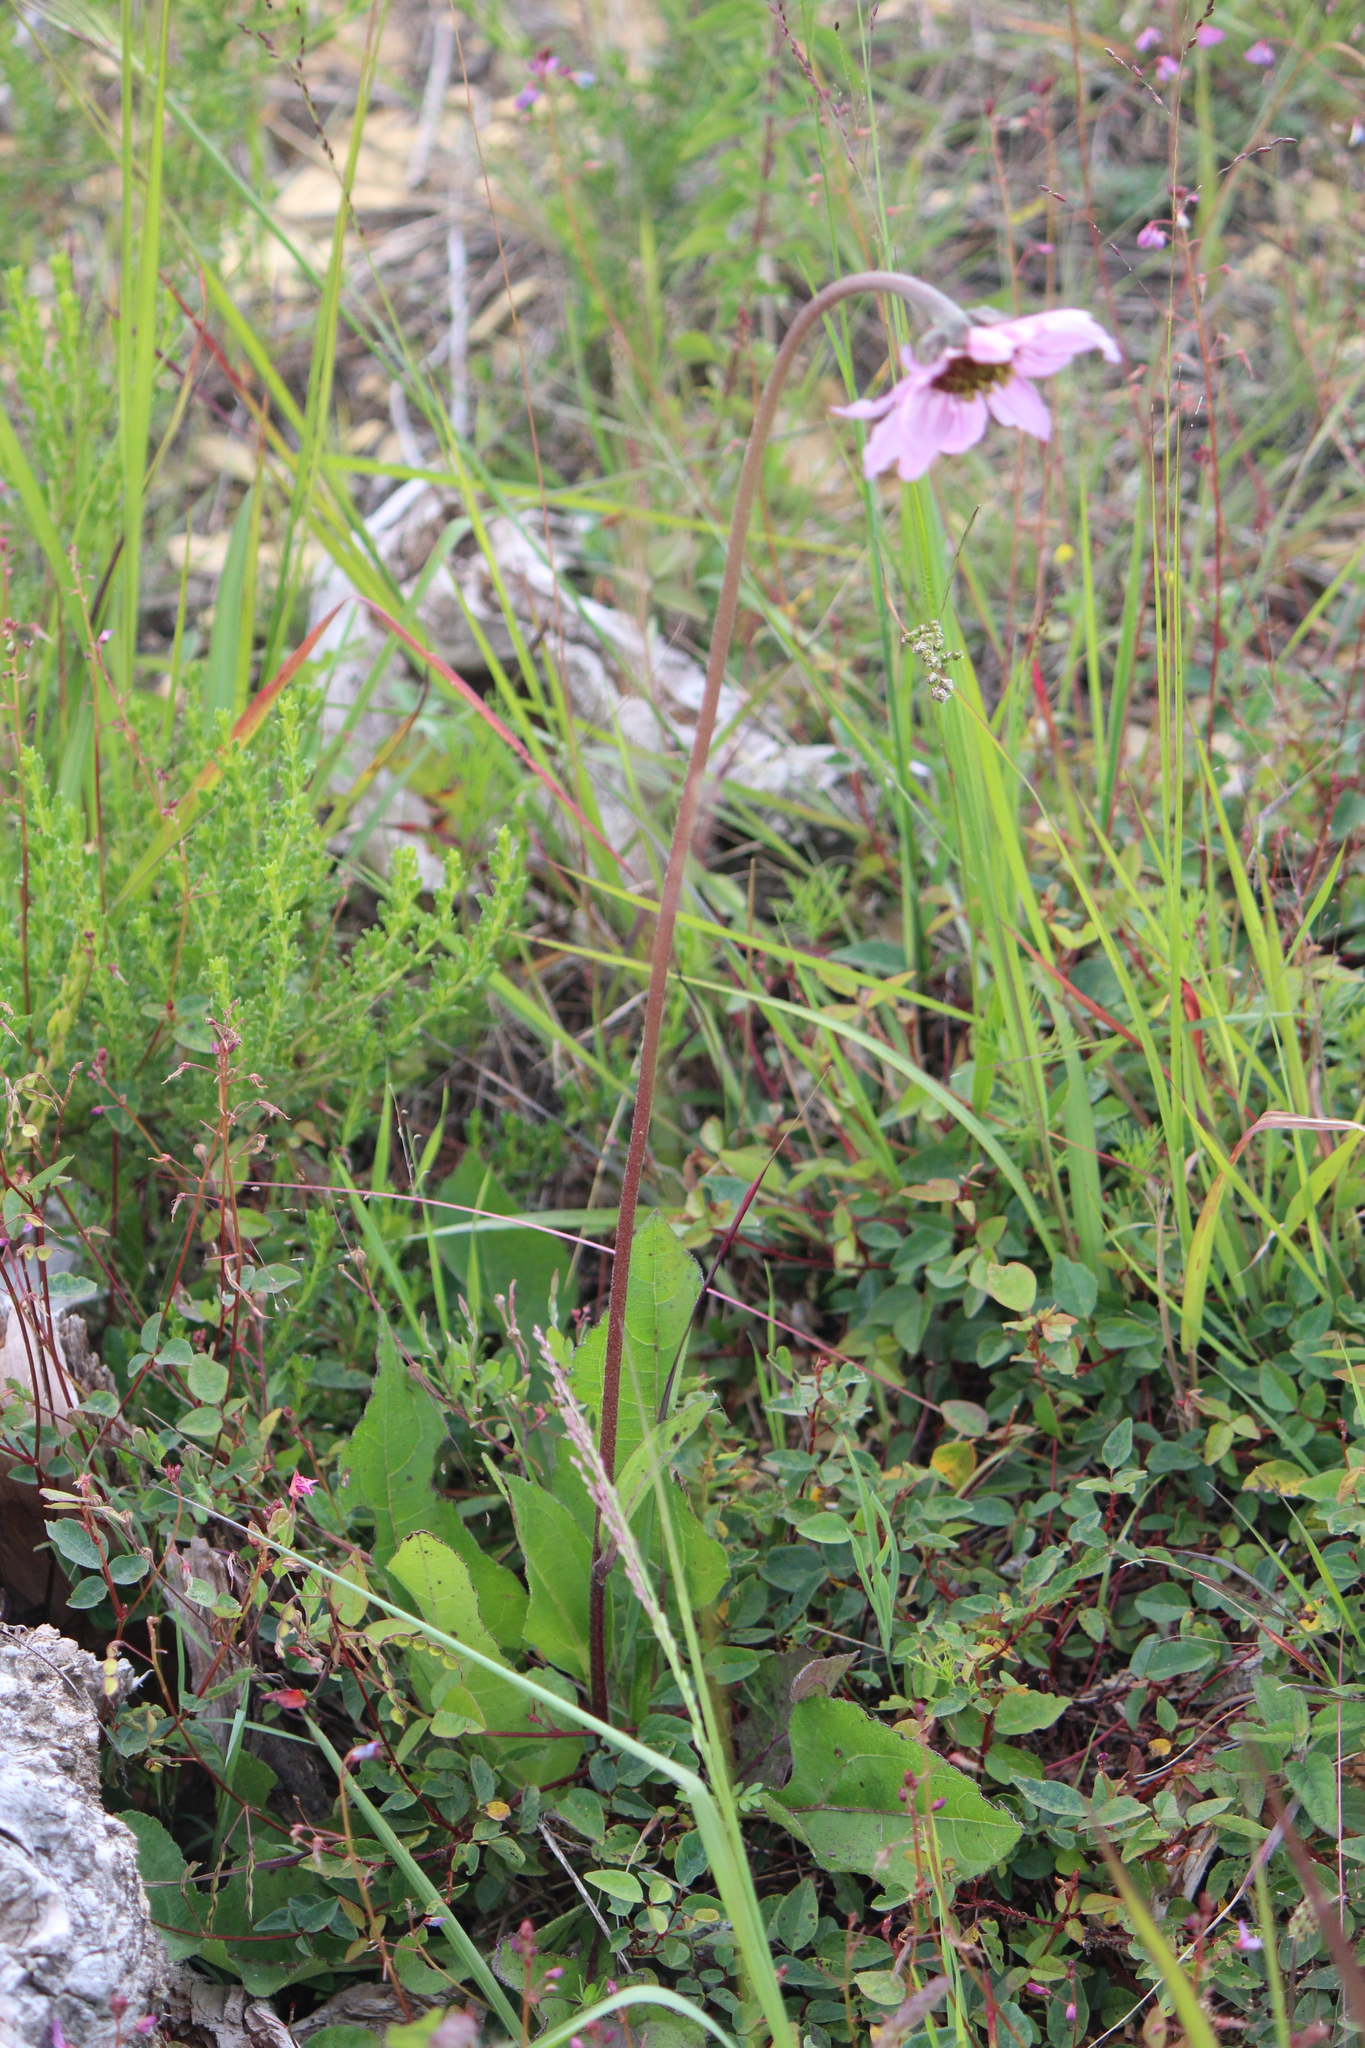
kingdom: Plantae
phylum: Tracheophyta
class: Magnoliopsida
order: Asterales
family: Asteraceae
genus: Iostephane
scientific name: Iostephane heterophylla
